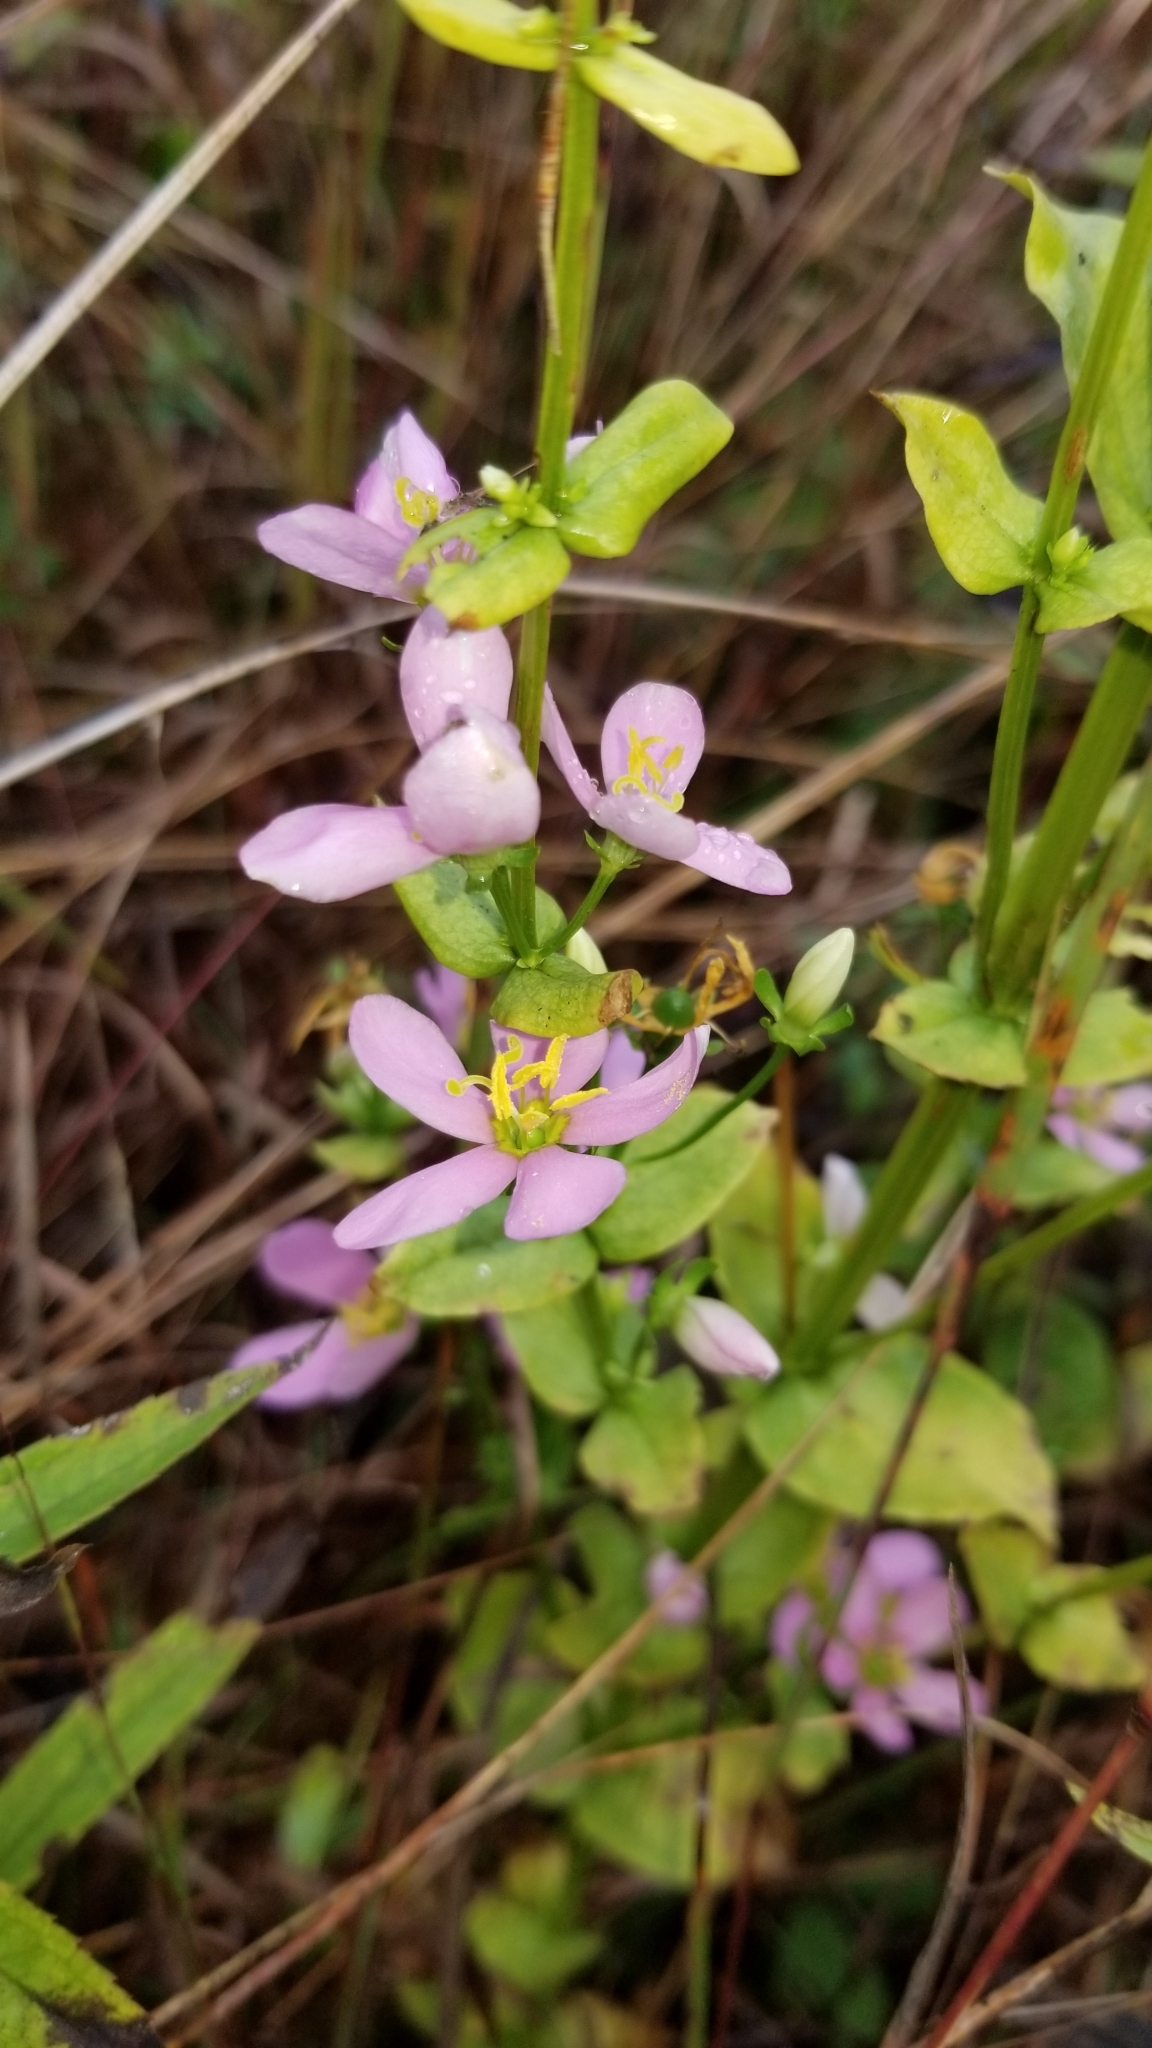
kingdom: Plantae
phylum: Tracheophyta
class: Magnoliopsida
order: Gentianales
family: Gentianaceae
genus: Sabatia
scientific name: Sabatia angularis
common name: Rose-pink
